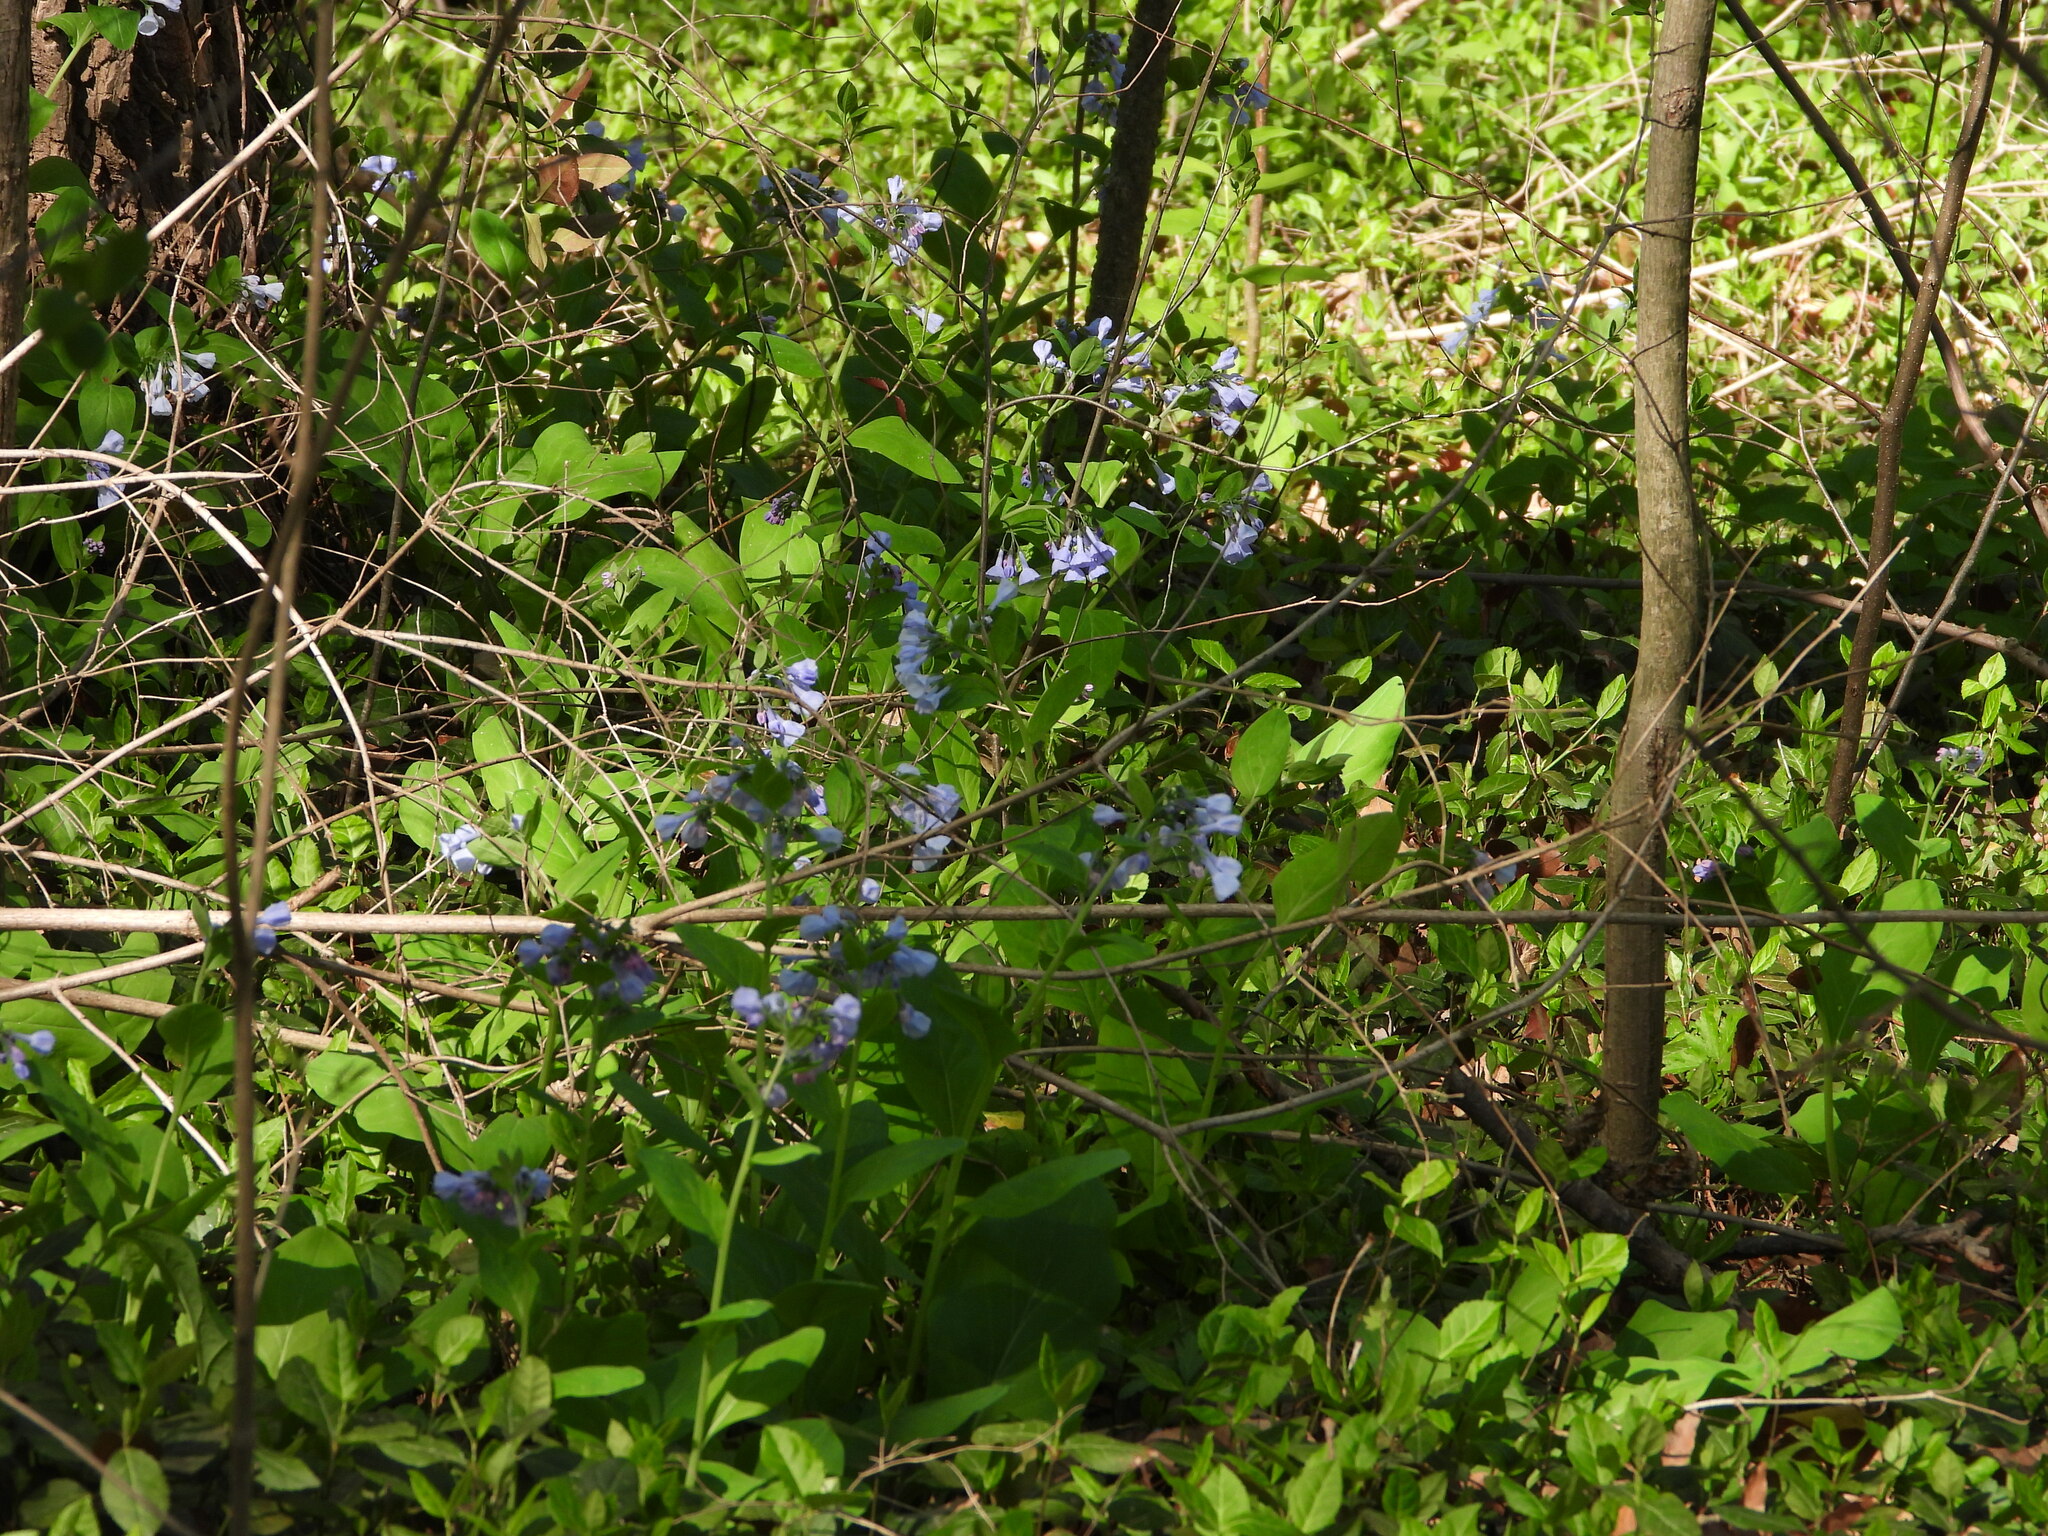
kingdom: Plantae
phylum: Tracheophyta
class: Magnoliopsida
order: Boraginales
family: Boraginaceae
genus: Mertensia
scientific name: Mertensia virginica
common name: Virginia bluebells
